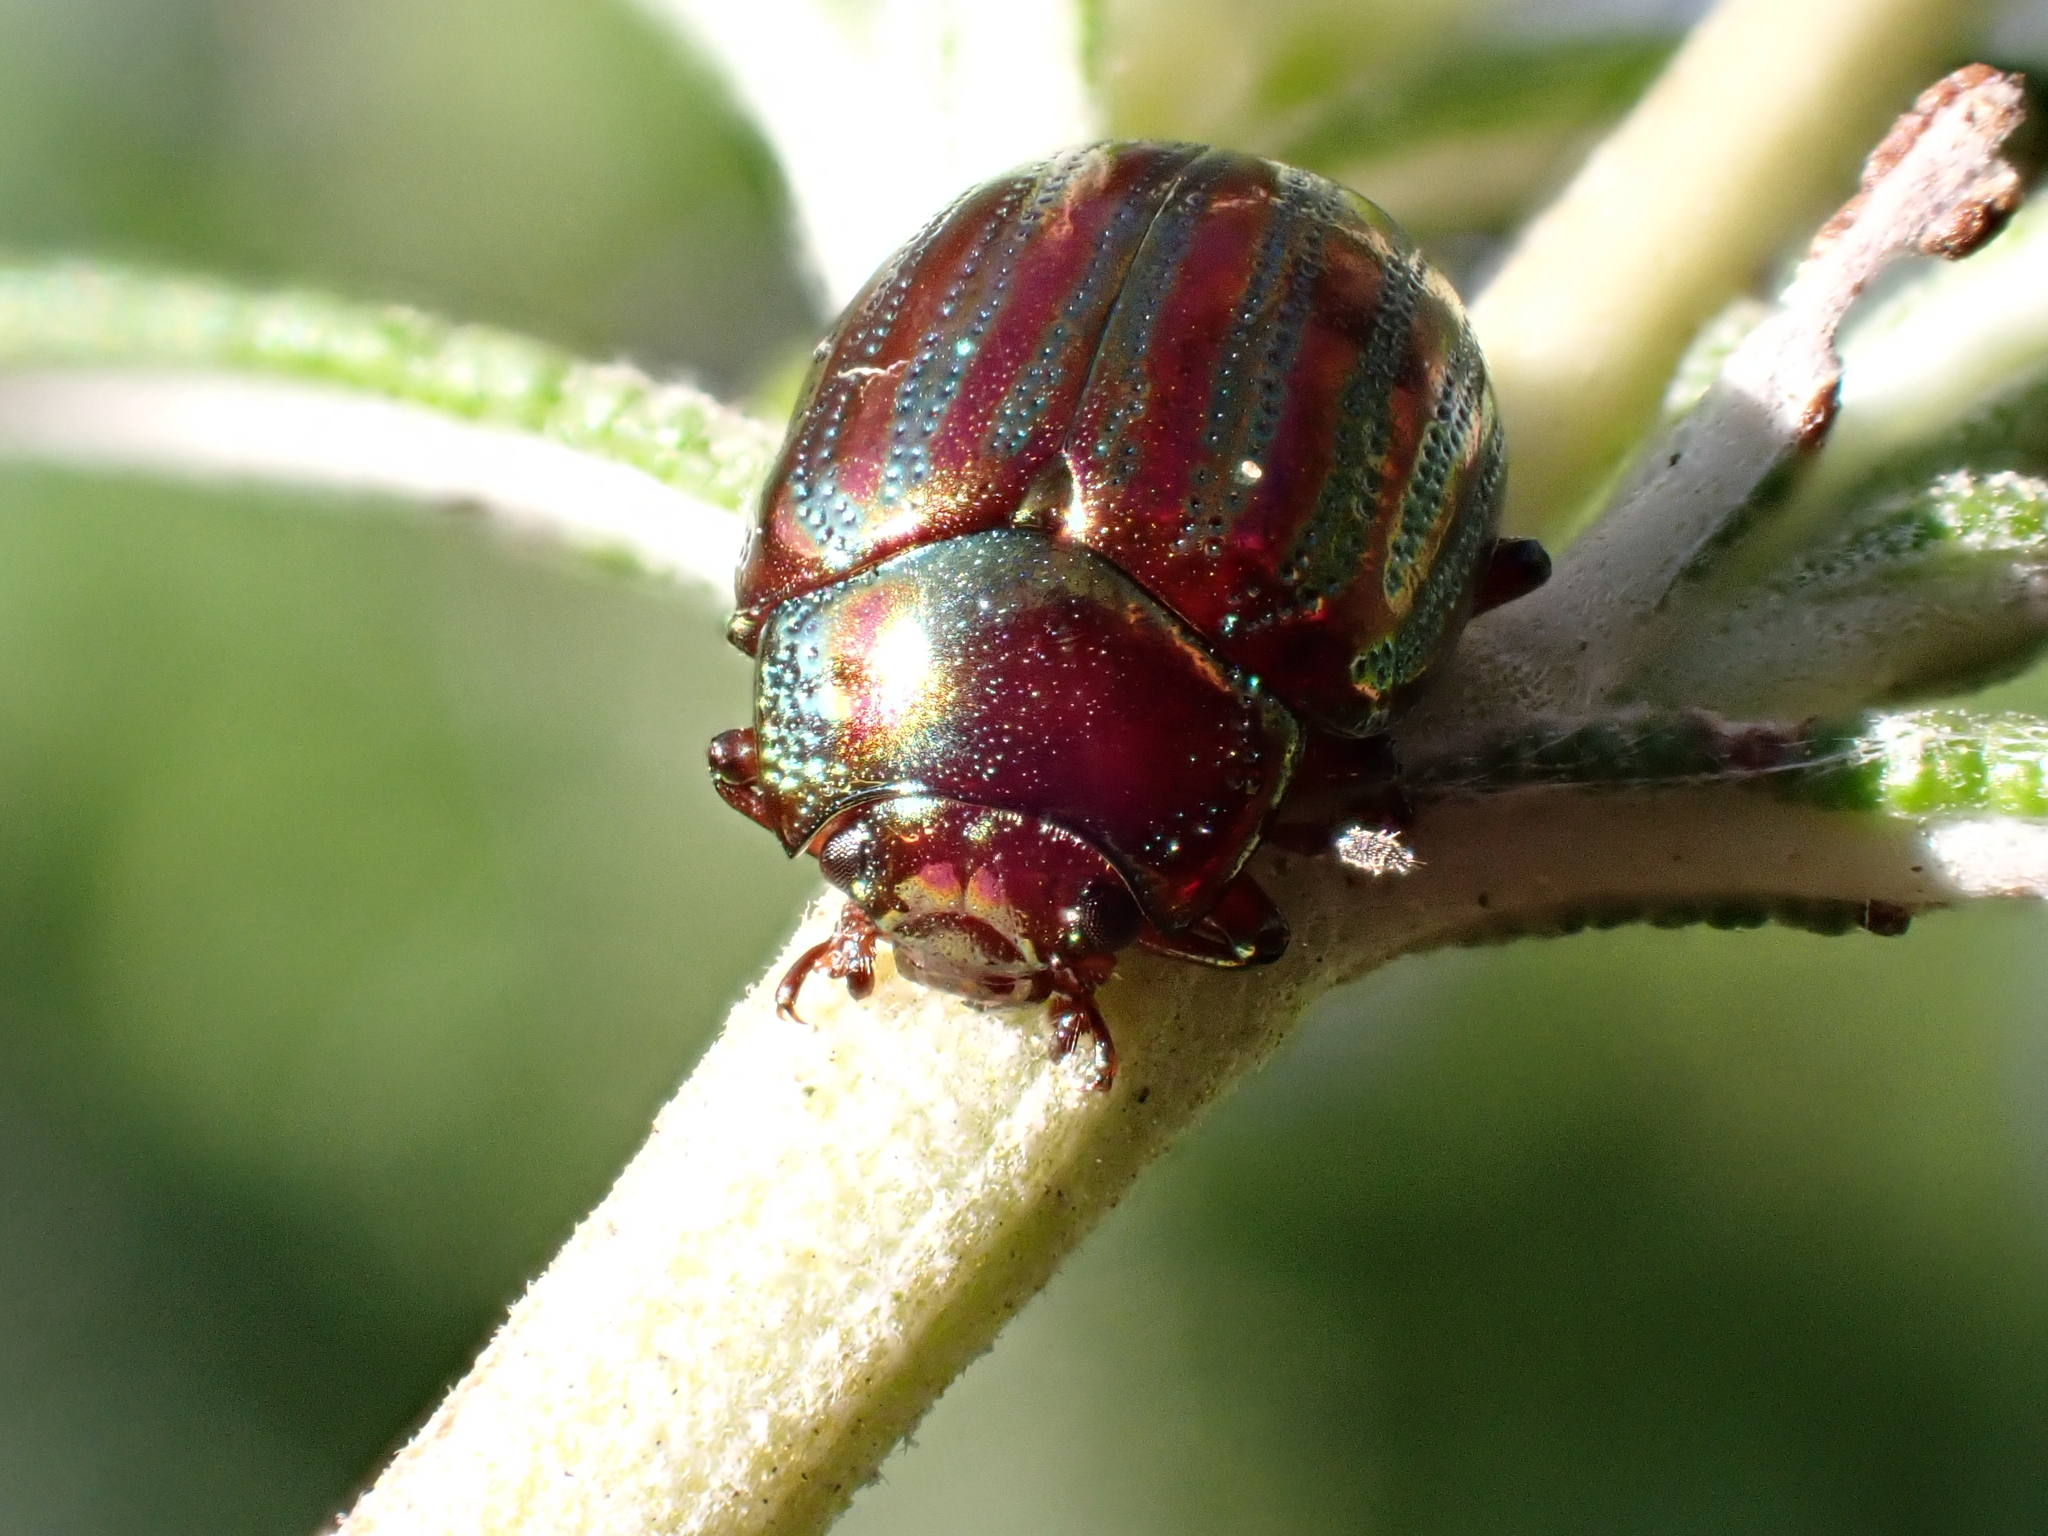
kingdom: Animalia
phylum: Arthropoda
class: Insecta
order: Coleoptera
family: Chrysomelidae
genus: Chrysolina
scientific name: Chrysolina americana
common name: Rosemary beetle
